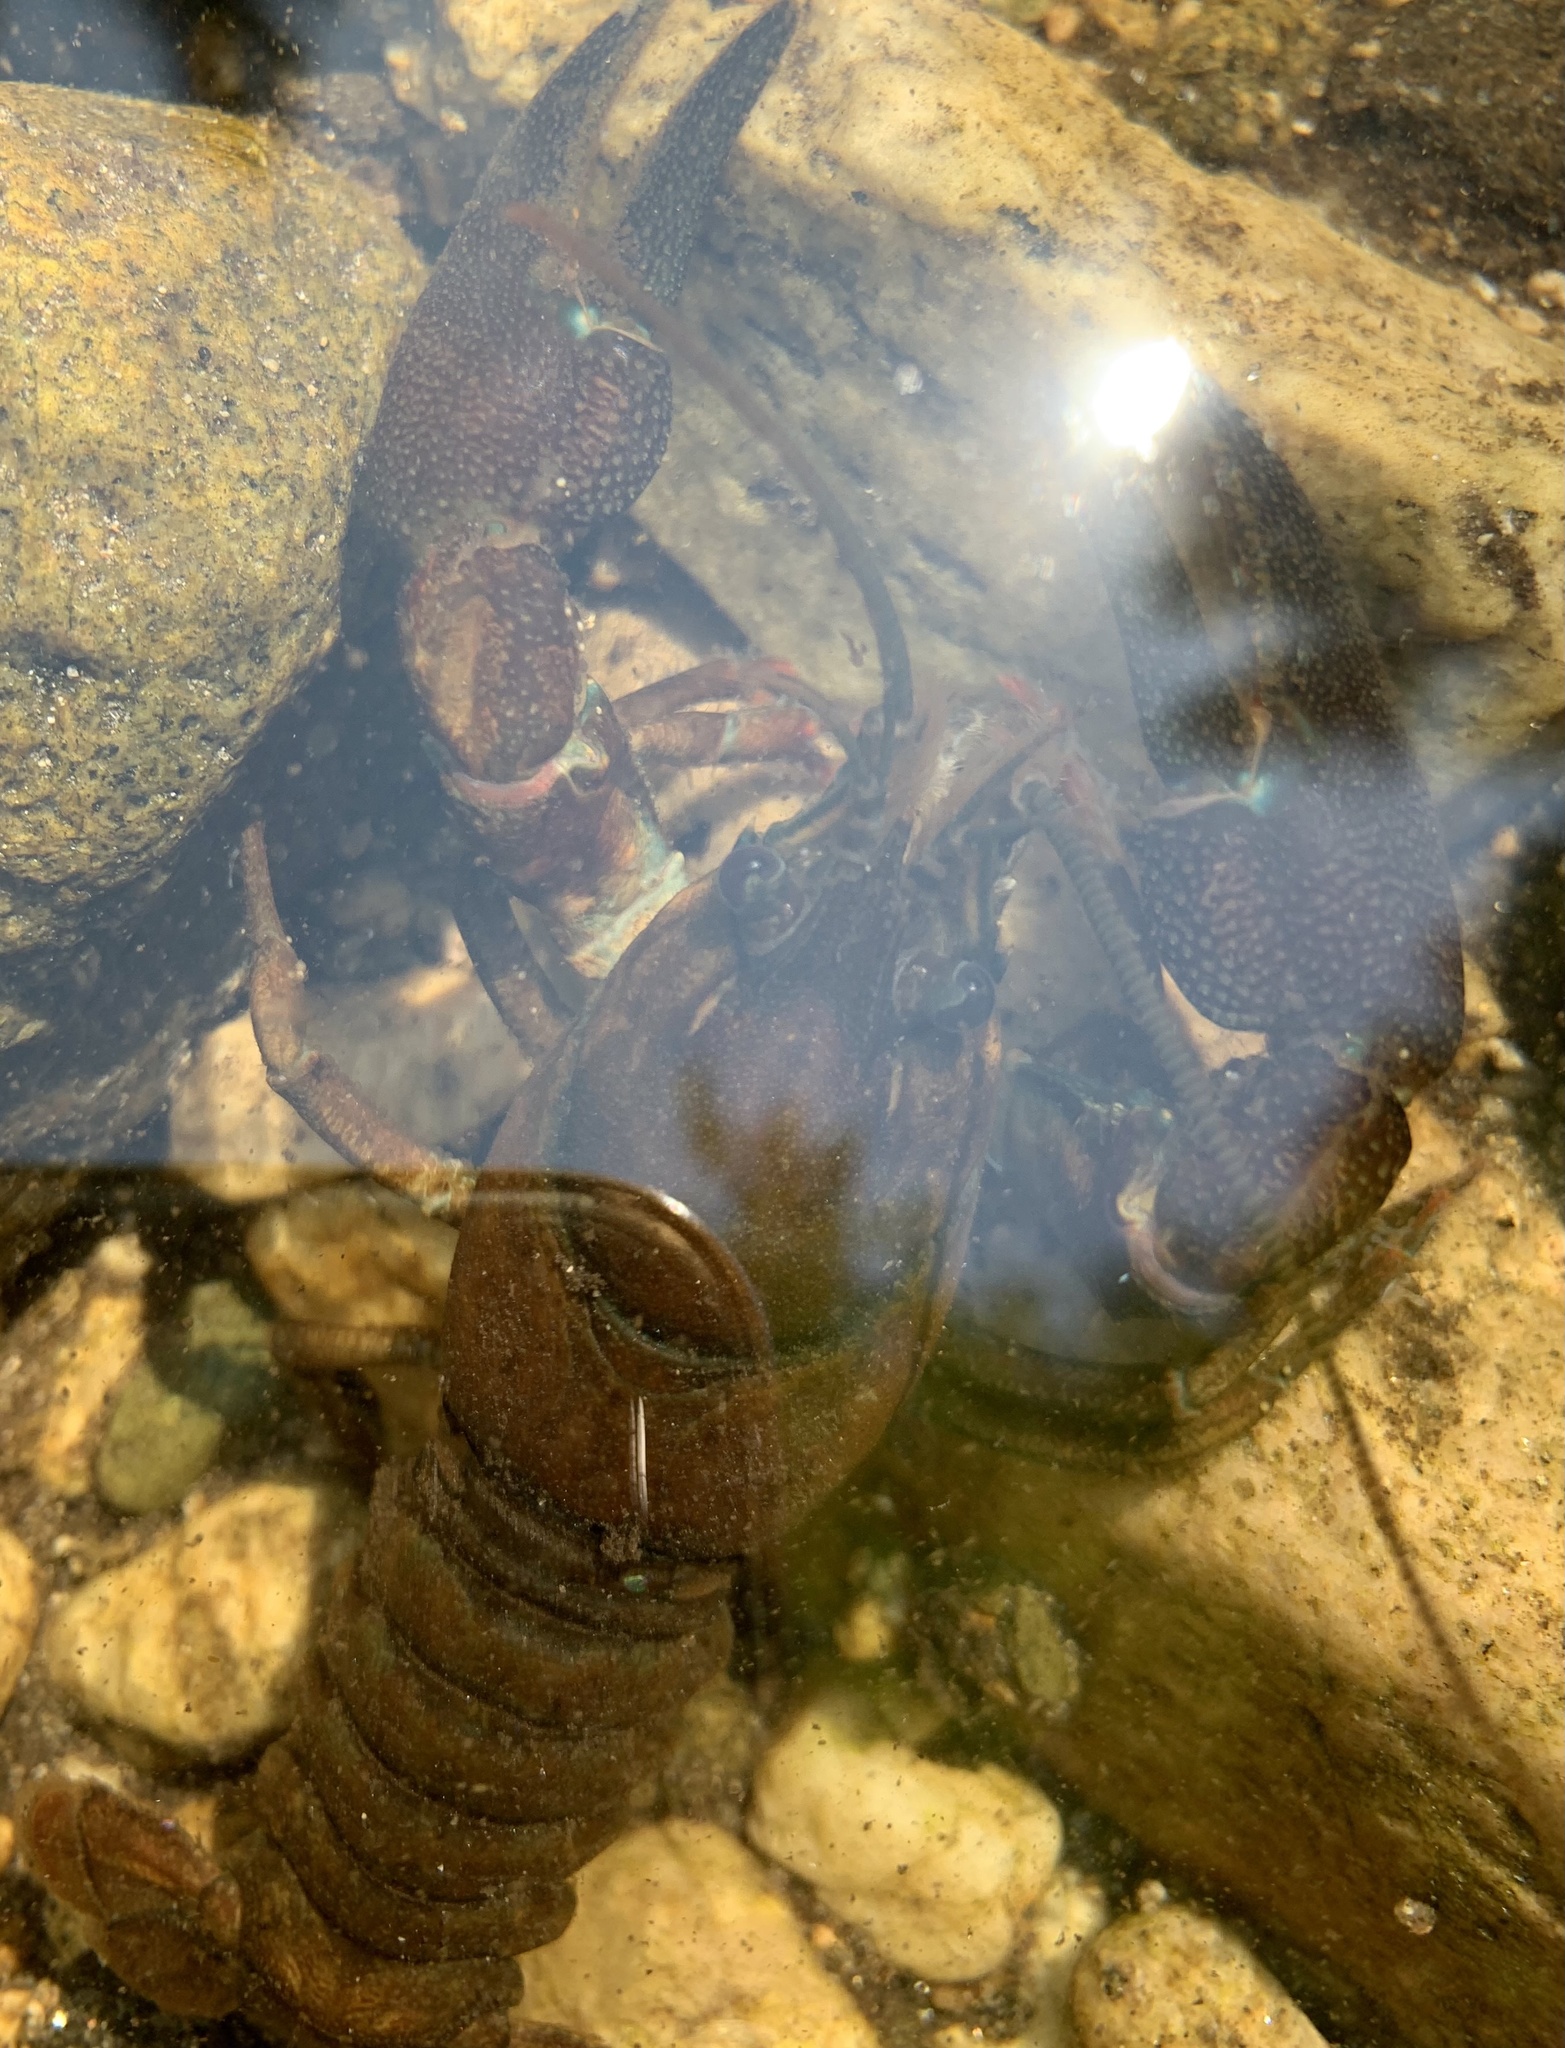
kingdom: Animalia
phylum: Arthropoda
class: Malacostraca
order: Decapoda
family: Astacidae
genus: Pacifastacus
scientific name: Pacifastacus leniusculus
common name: Signal crayfish
